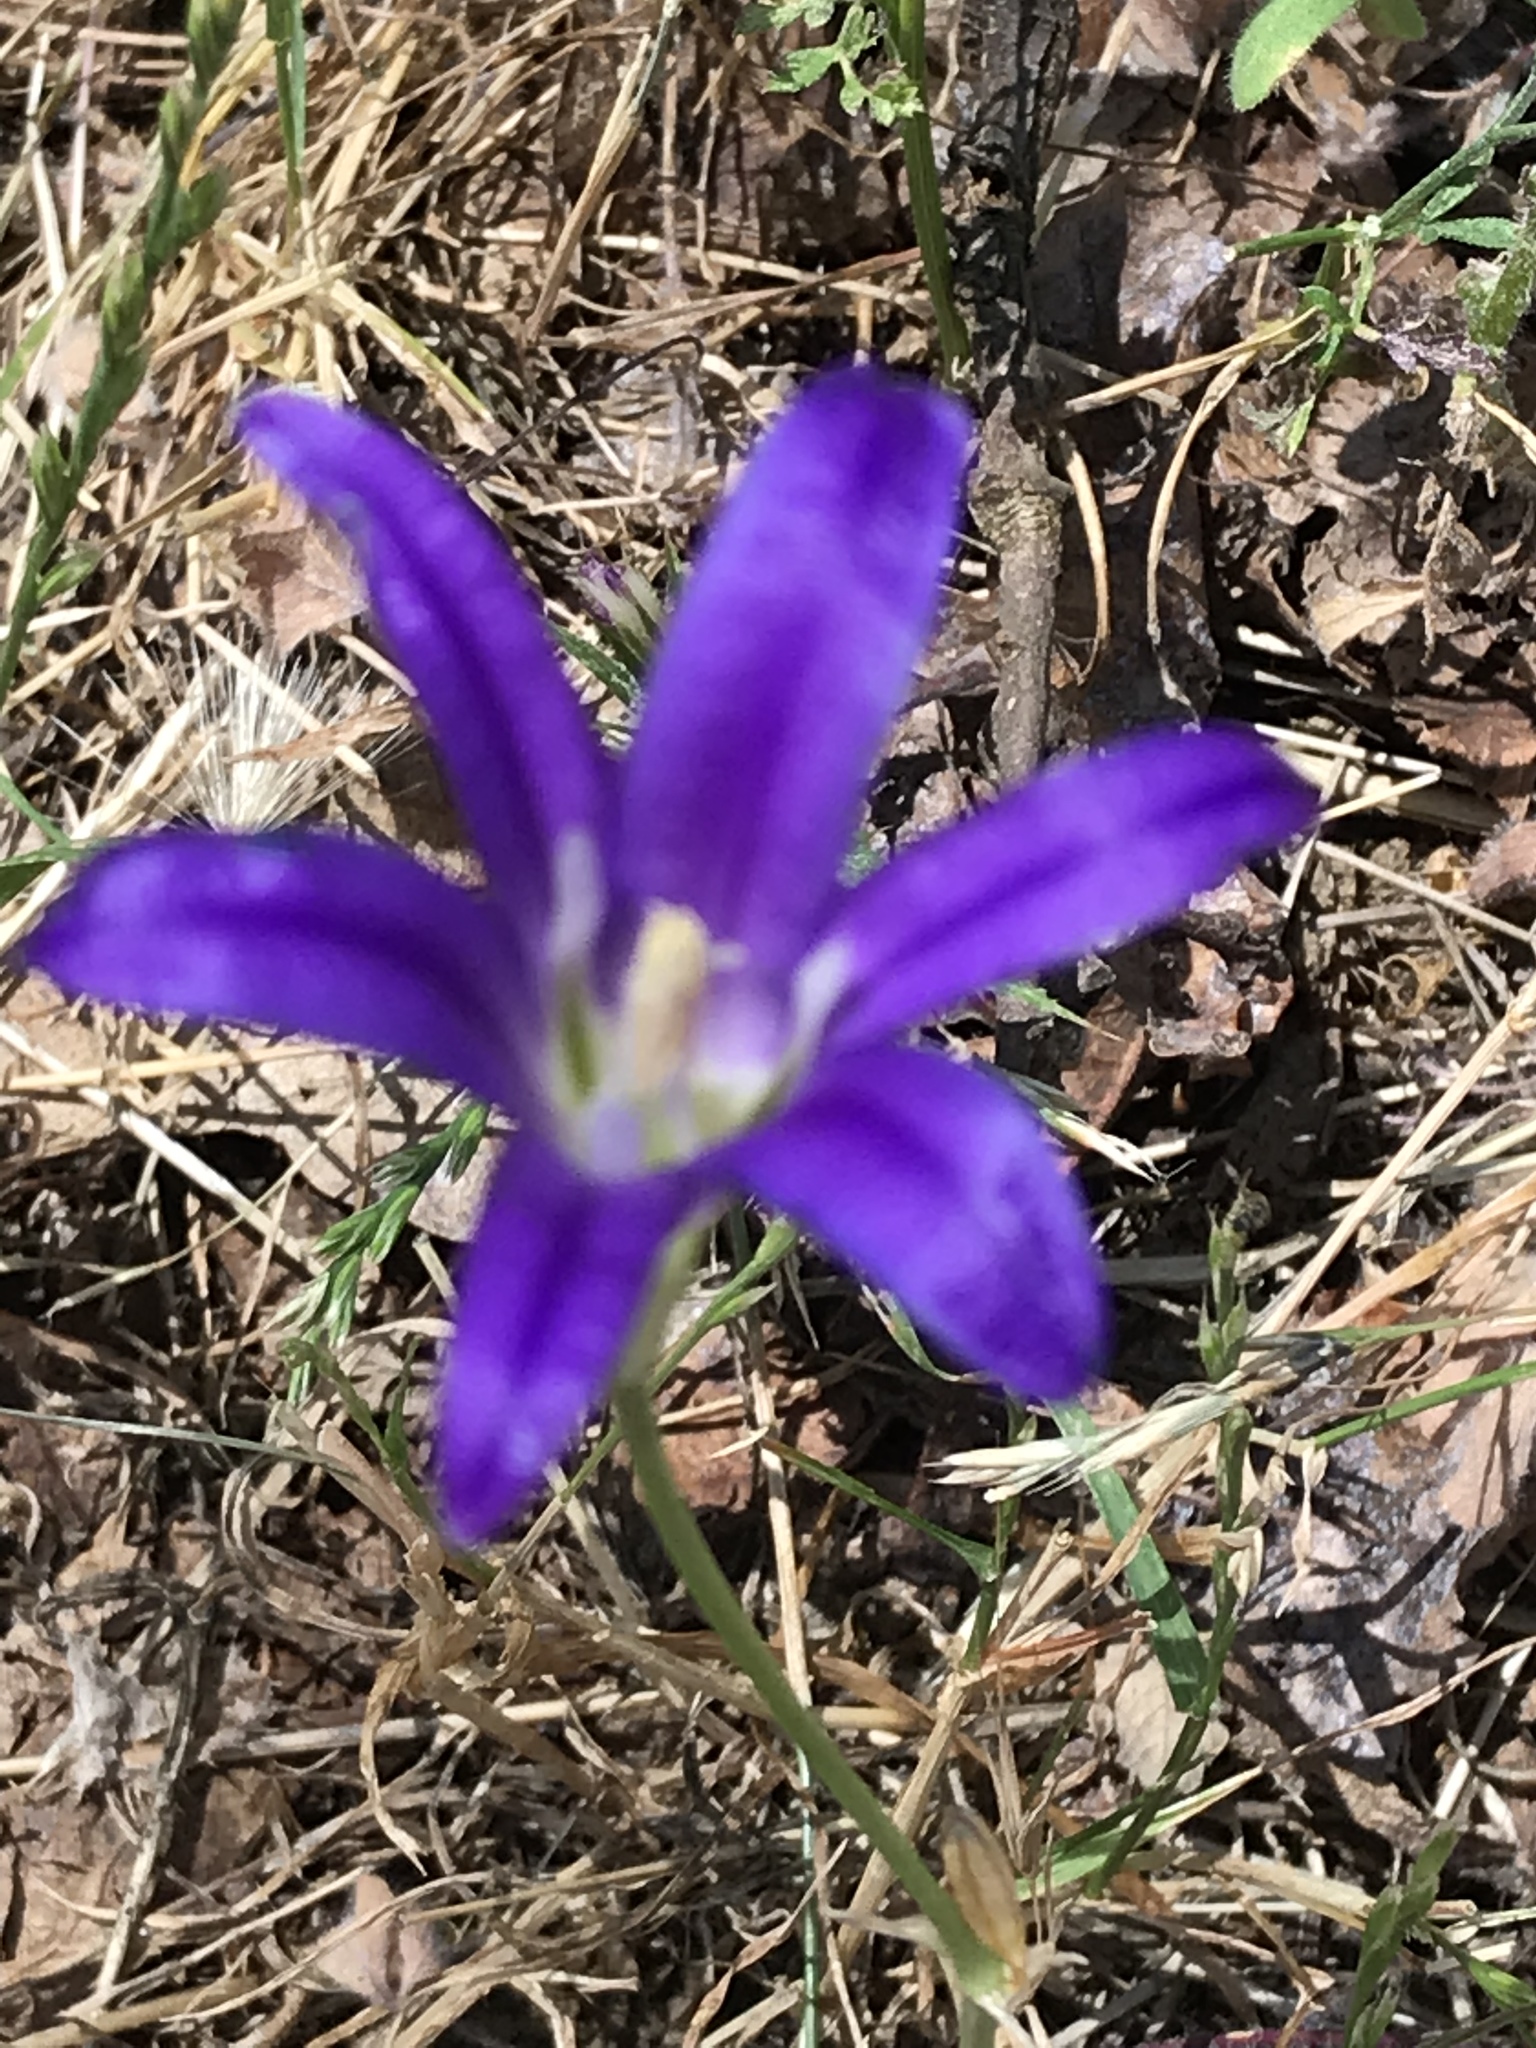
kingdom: Plantae
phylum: Tracheophyta
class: Liliopsida
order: Asparagales
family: Asparagaceae
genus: Brodiaea
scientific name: Brodiaea elegans
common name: Elegant cluster-lily
